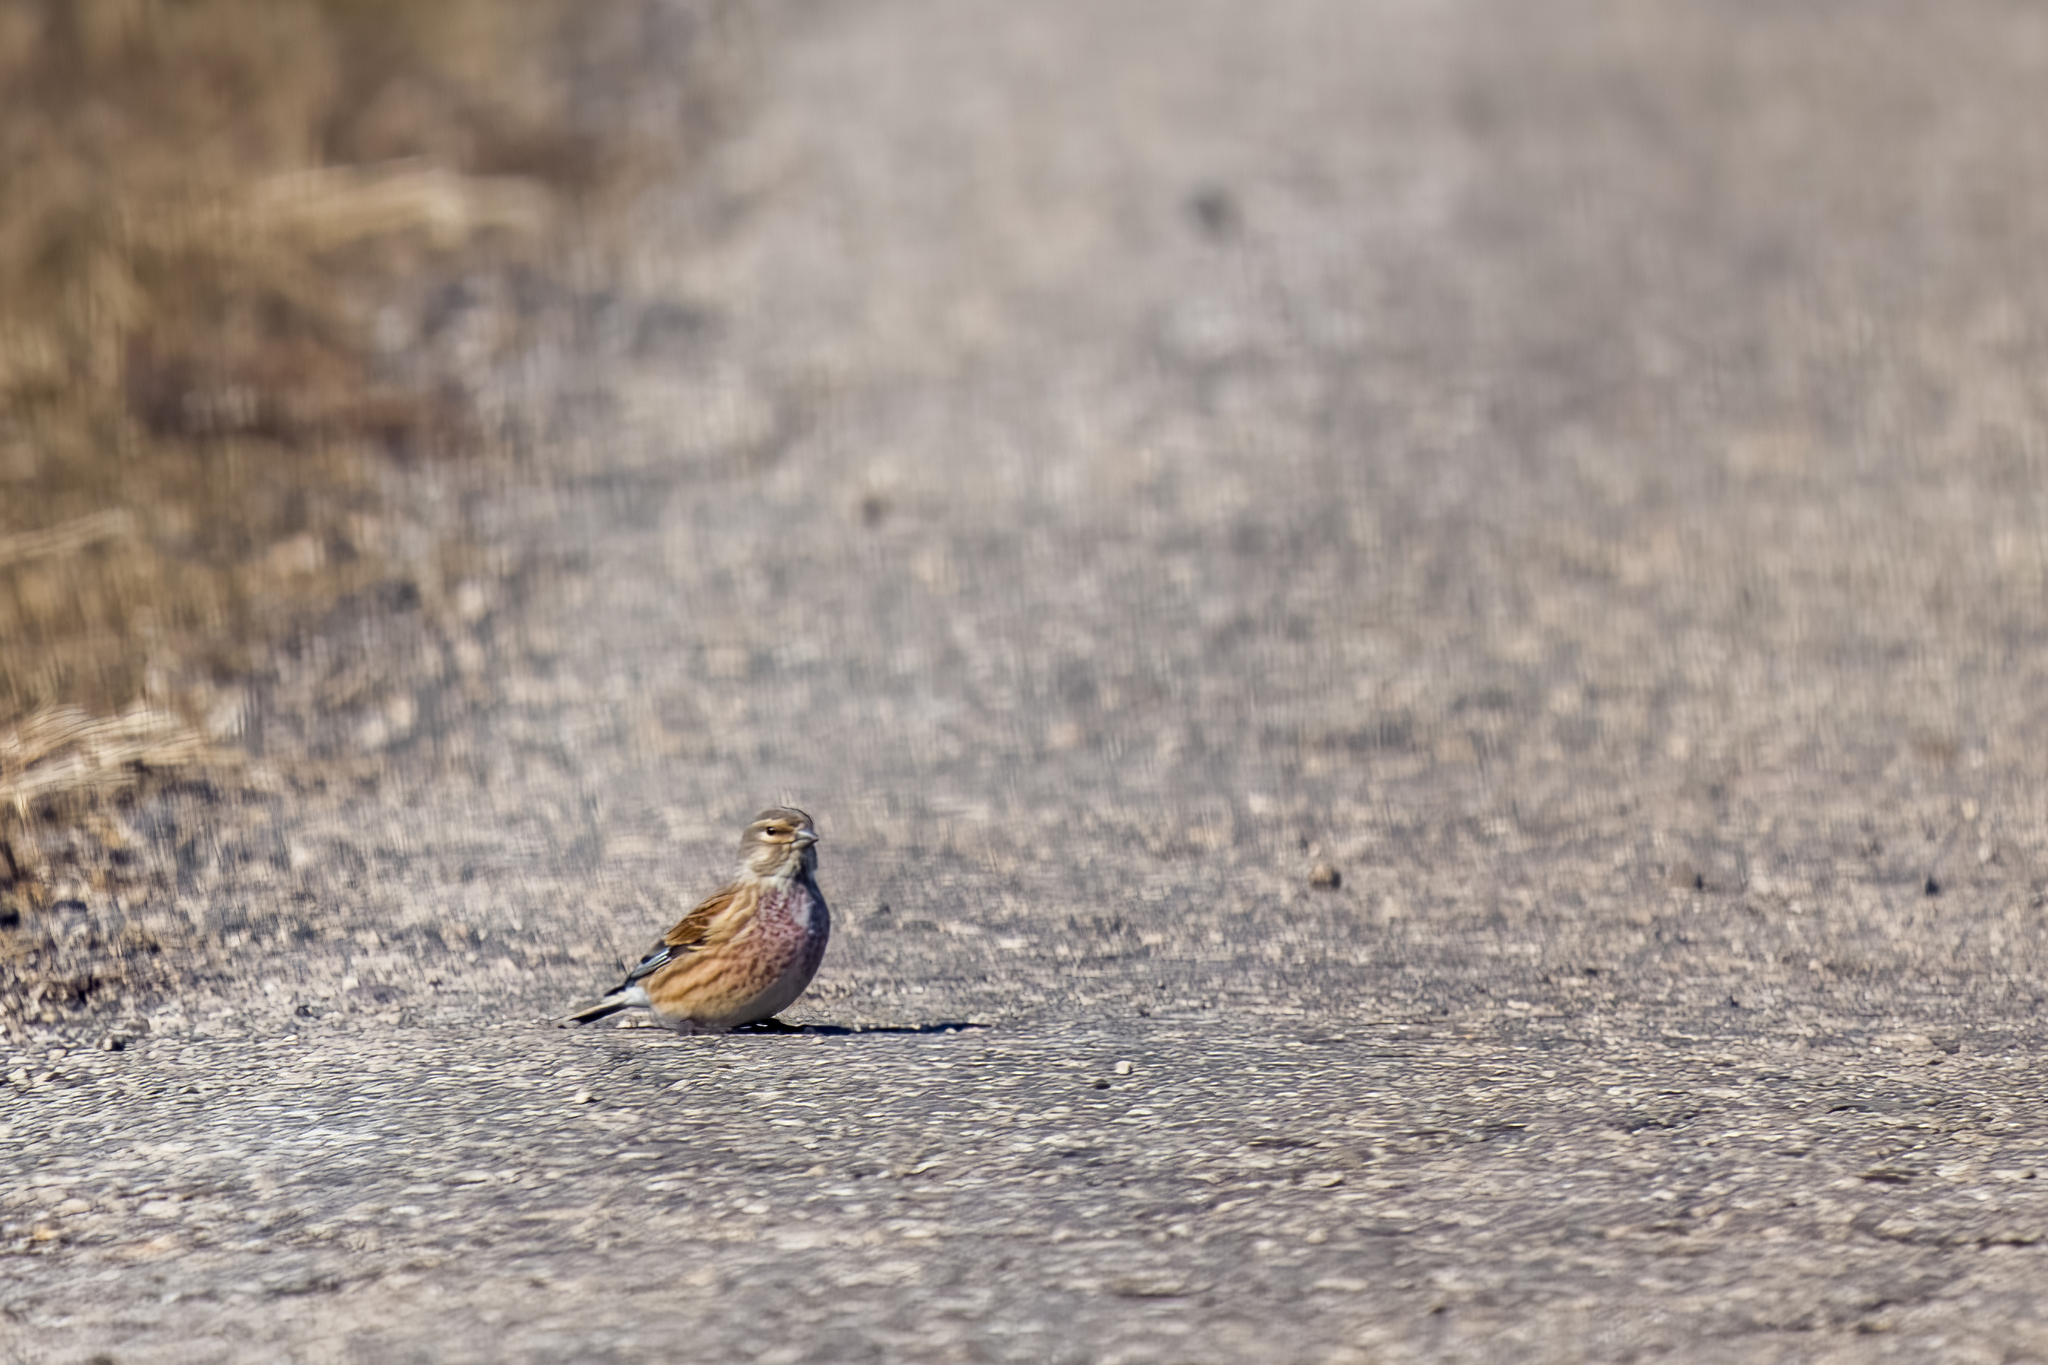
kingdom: Animalia
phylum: Chordata
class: Aves
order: Passeriformes
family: Fringillidae
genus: Linaria
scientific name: Linaria cannabina
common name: Common linnet
